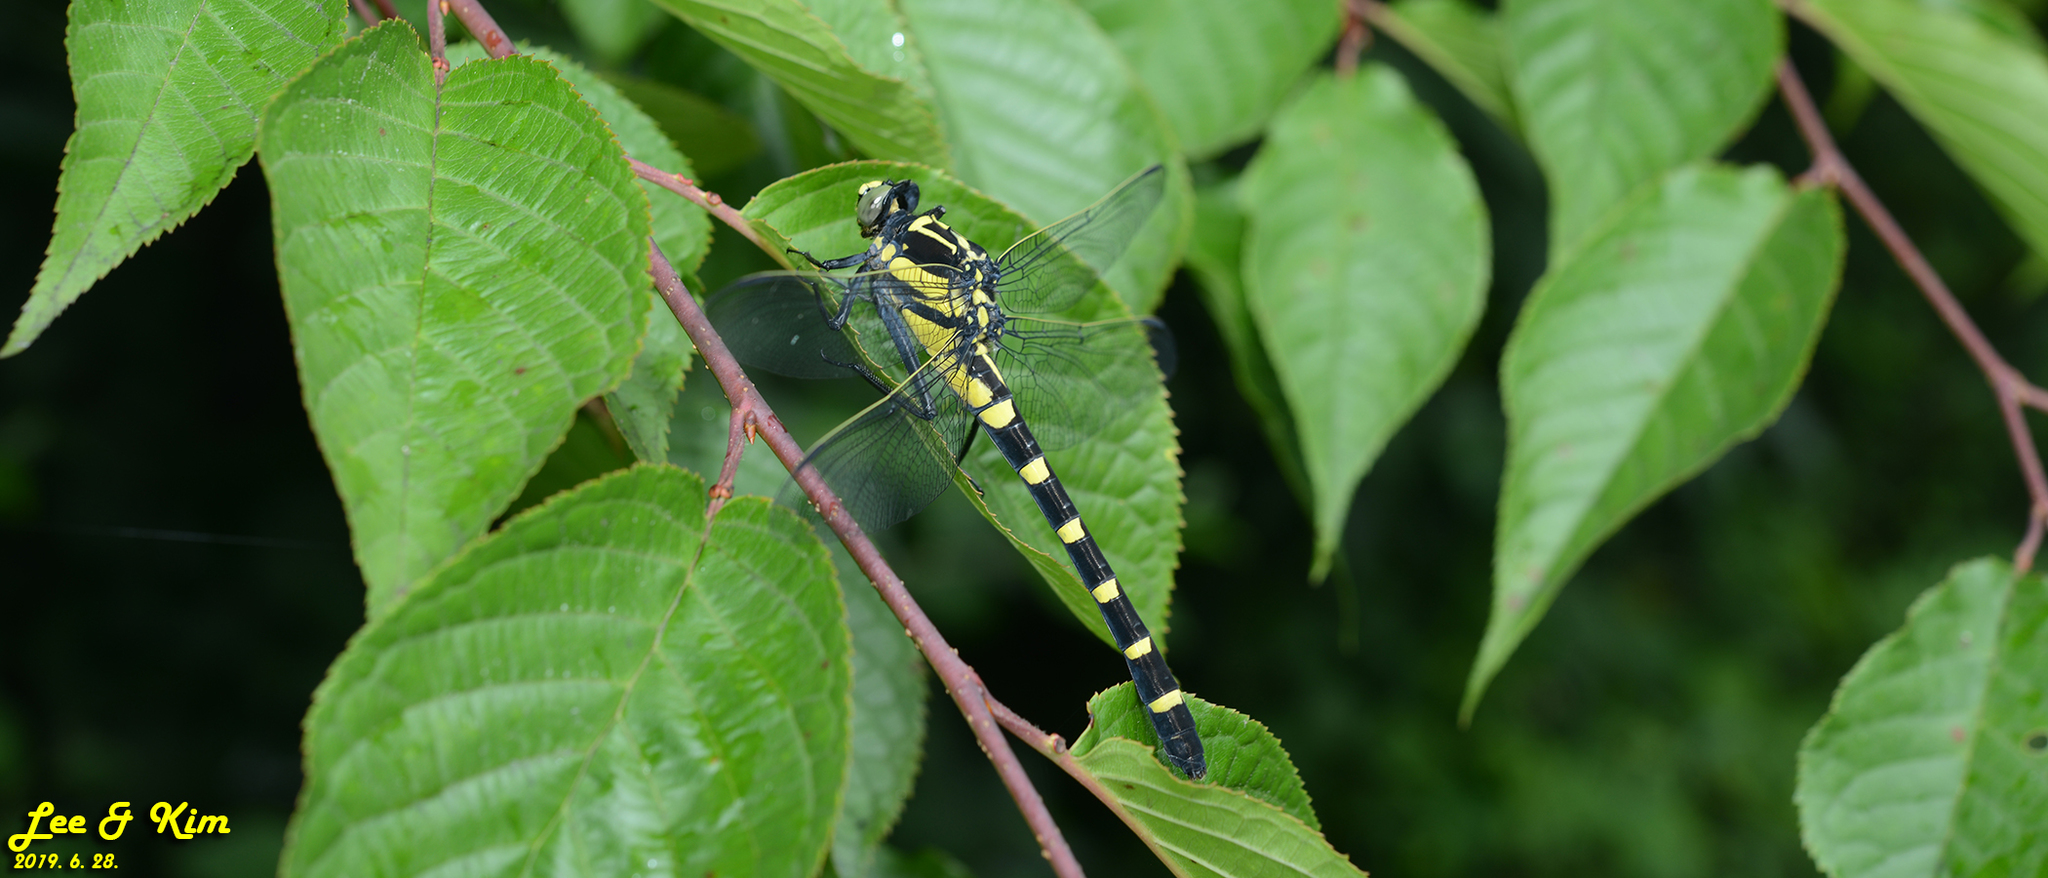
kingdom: Animalia
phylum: Arthropoda
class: Insecta
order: Odonata
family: Gomphidae
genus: Sieboldius
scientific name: Sieboldius albardae
